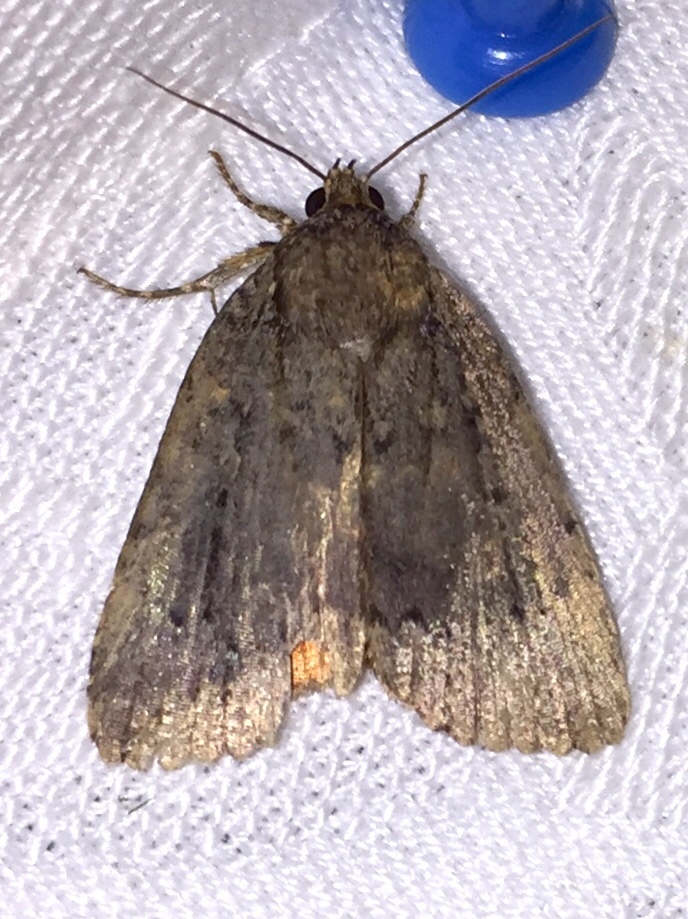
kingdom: Animalia
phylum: Arthropoda
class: Insecta
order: Lepidoptera
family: Noctuidae
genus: Amphipyra
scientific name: Amphipyra pyramidoides
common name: American copper underwing
